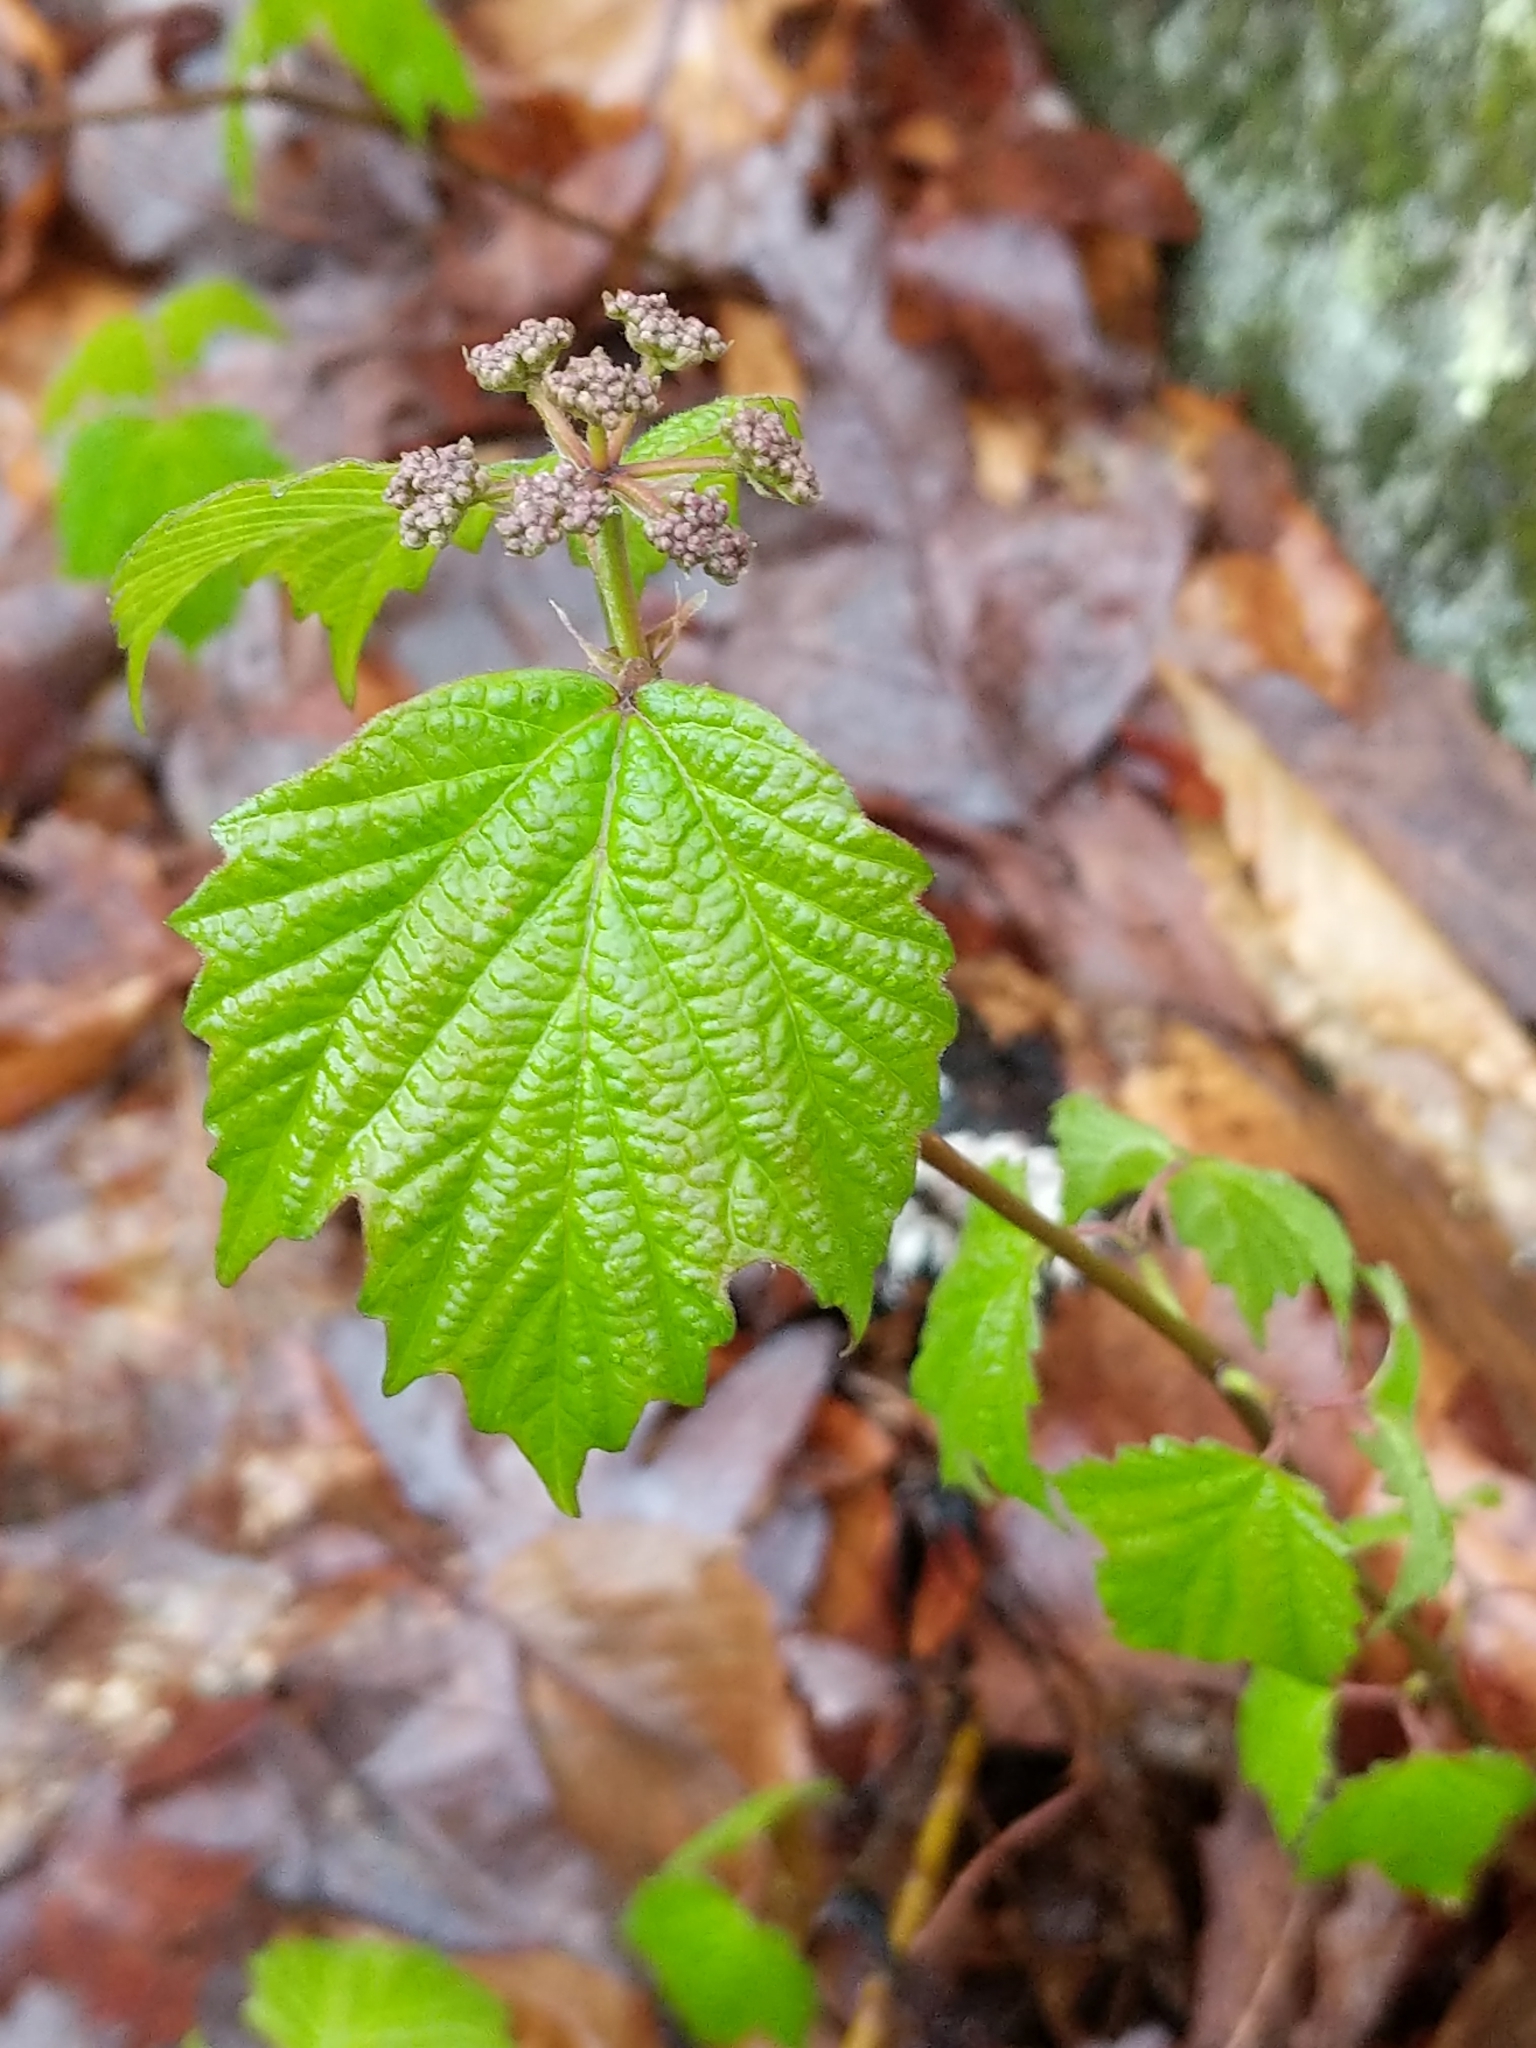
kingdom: Plantae
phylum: Tracheophyta
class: Magnoliopsida
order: Dipsacales
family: Viburnaceae
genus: Viburnum
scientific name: Viburnum acerifolium
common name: Dockmackie
